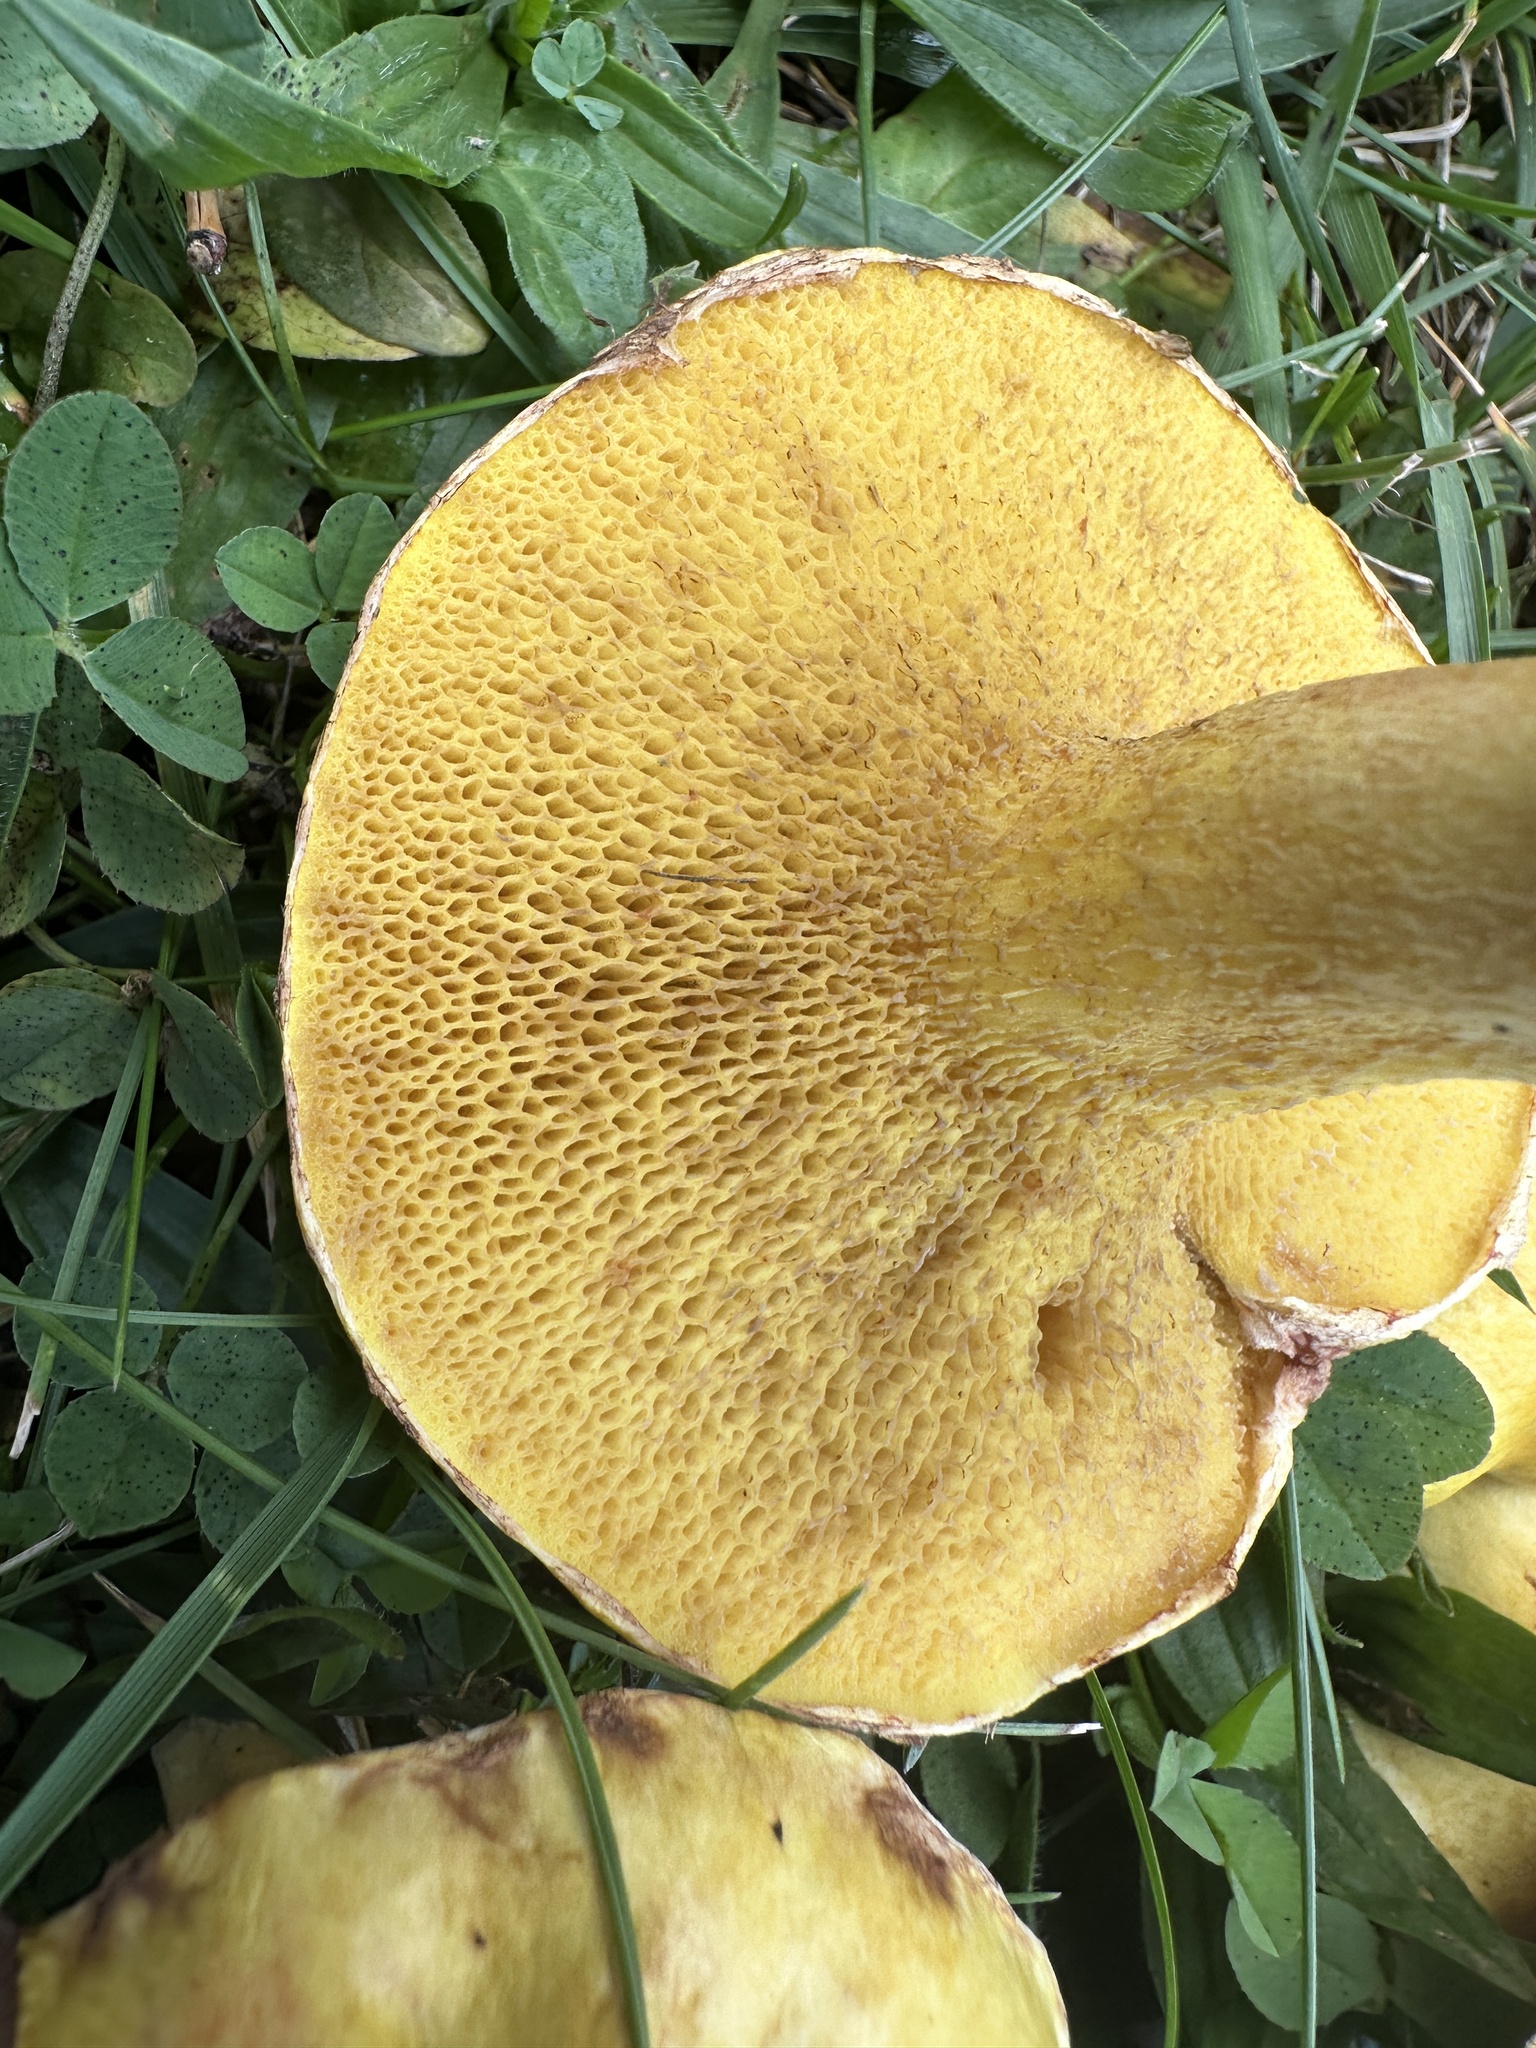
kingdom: Fungi
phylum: Basidiomycota
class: Agaricomycetes
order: Boletales
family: Suillaceae
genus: Suillus
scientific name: Suillus americanus
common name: Chicken fat mushroom
